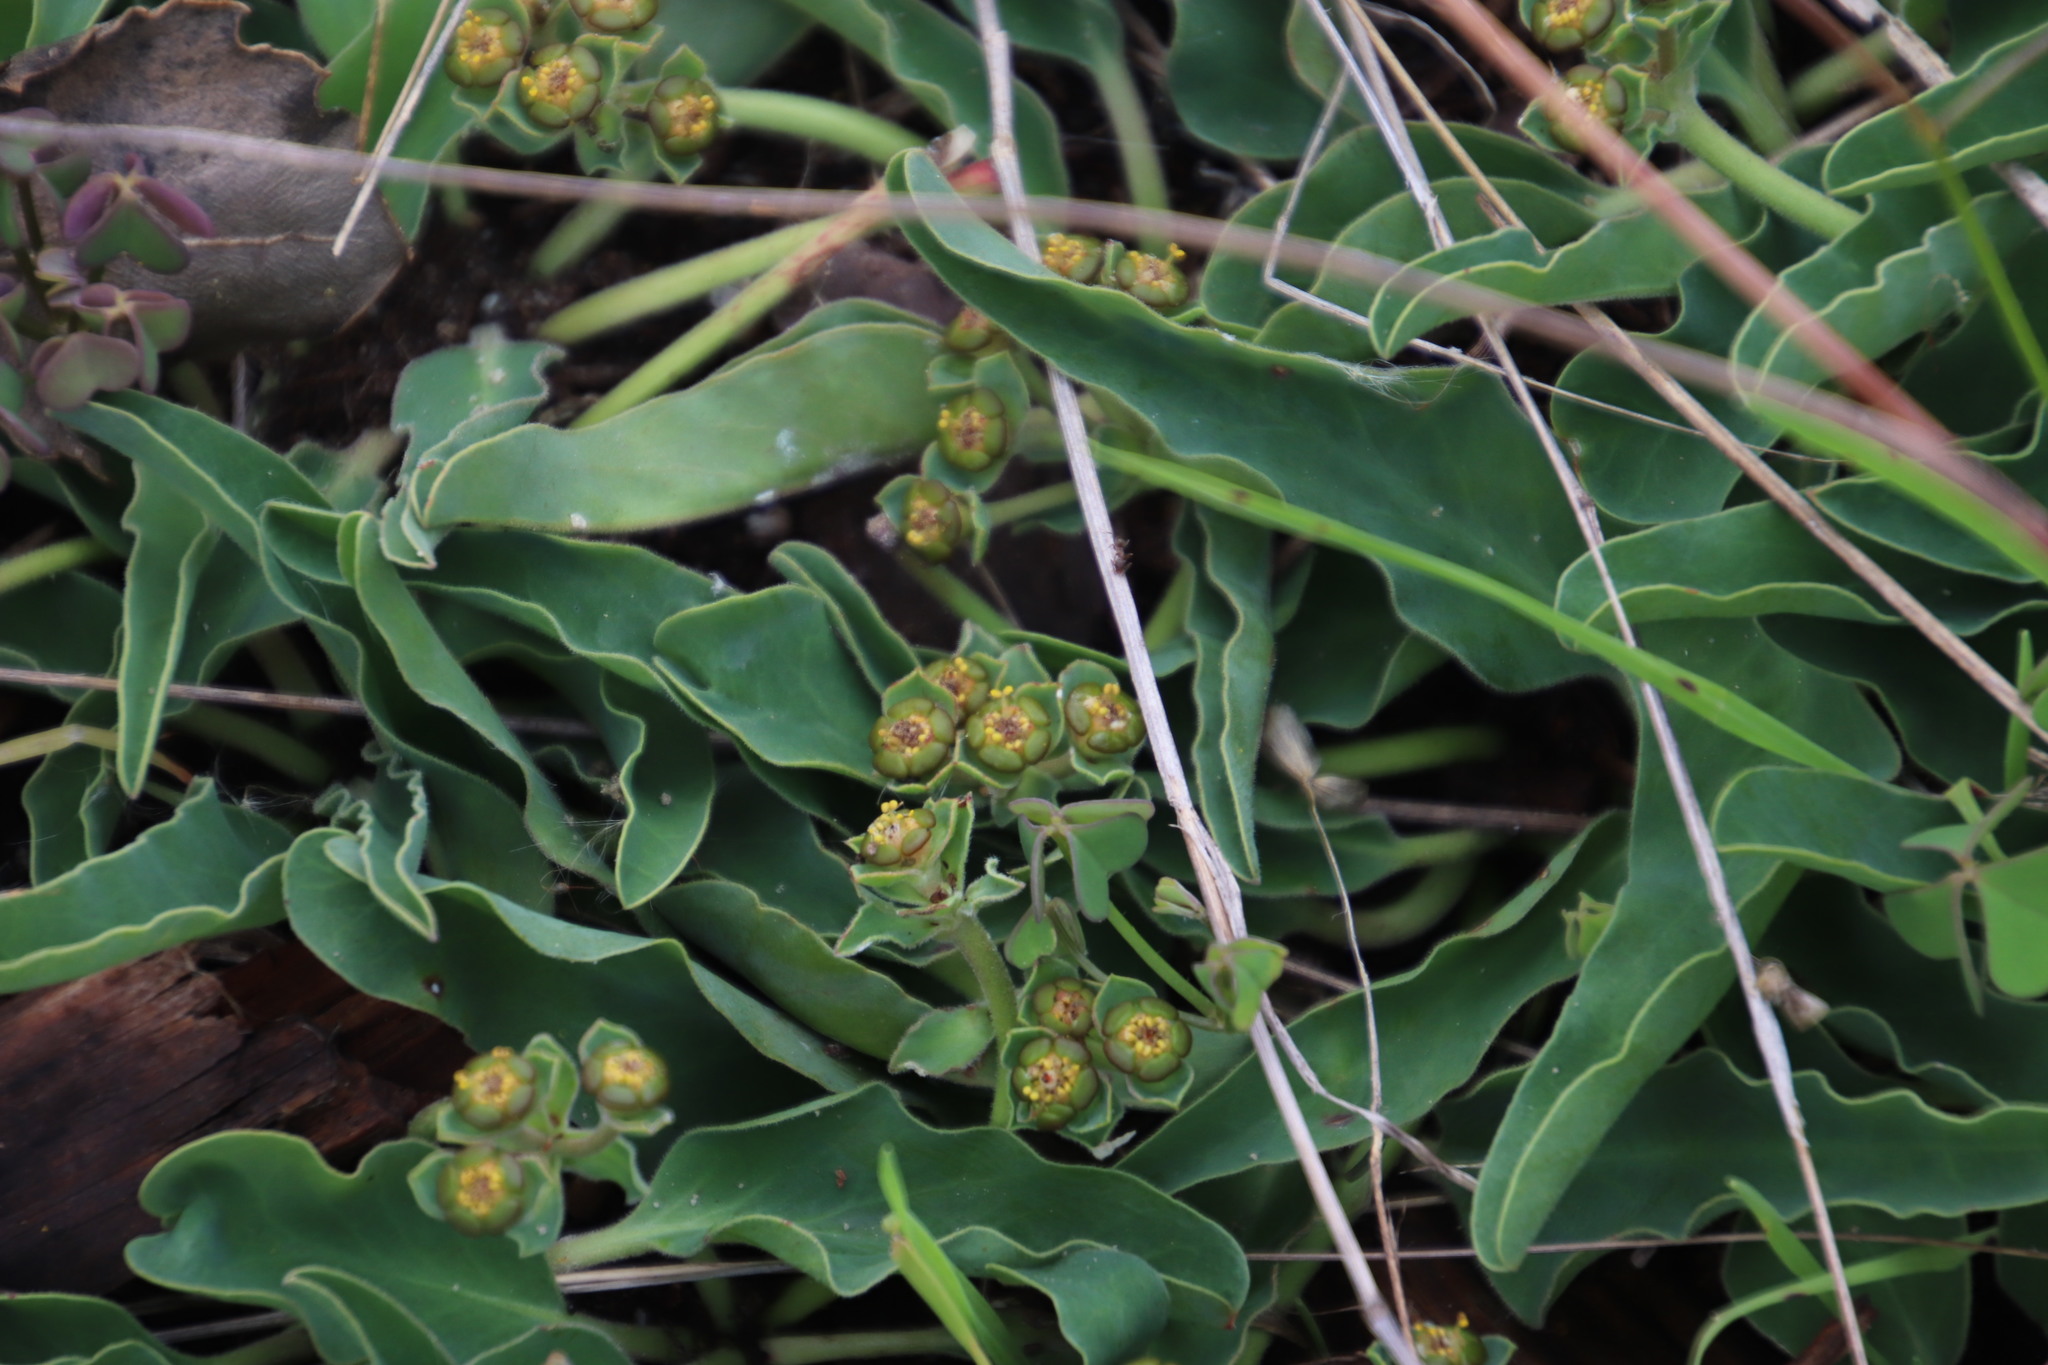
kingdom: Plantae
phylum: Tracheophyta
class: Magnoliopsida
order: Malpighiales
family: Euphorbiaceae
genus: Euphorbia
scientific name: Euphorbia tuberosa
